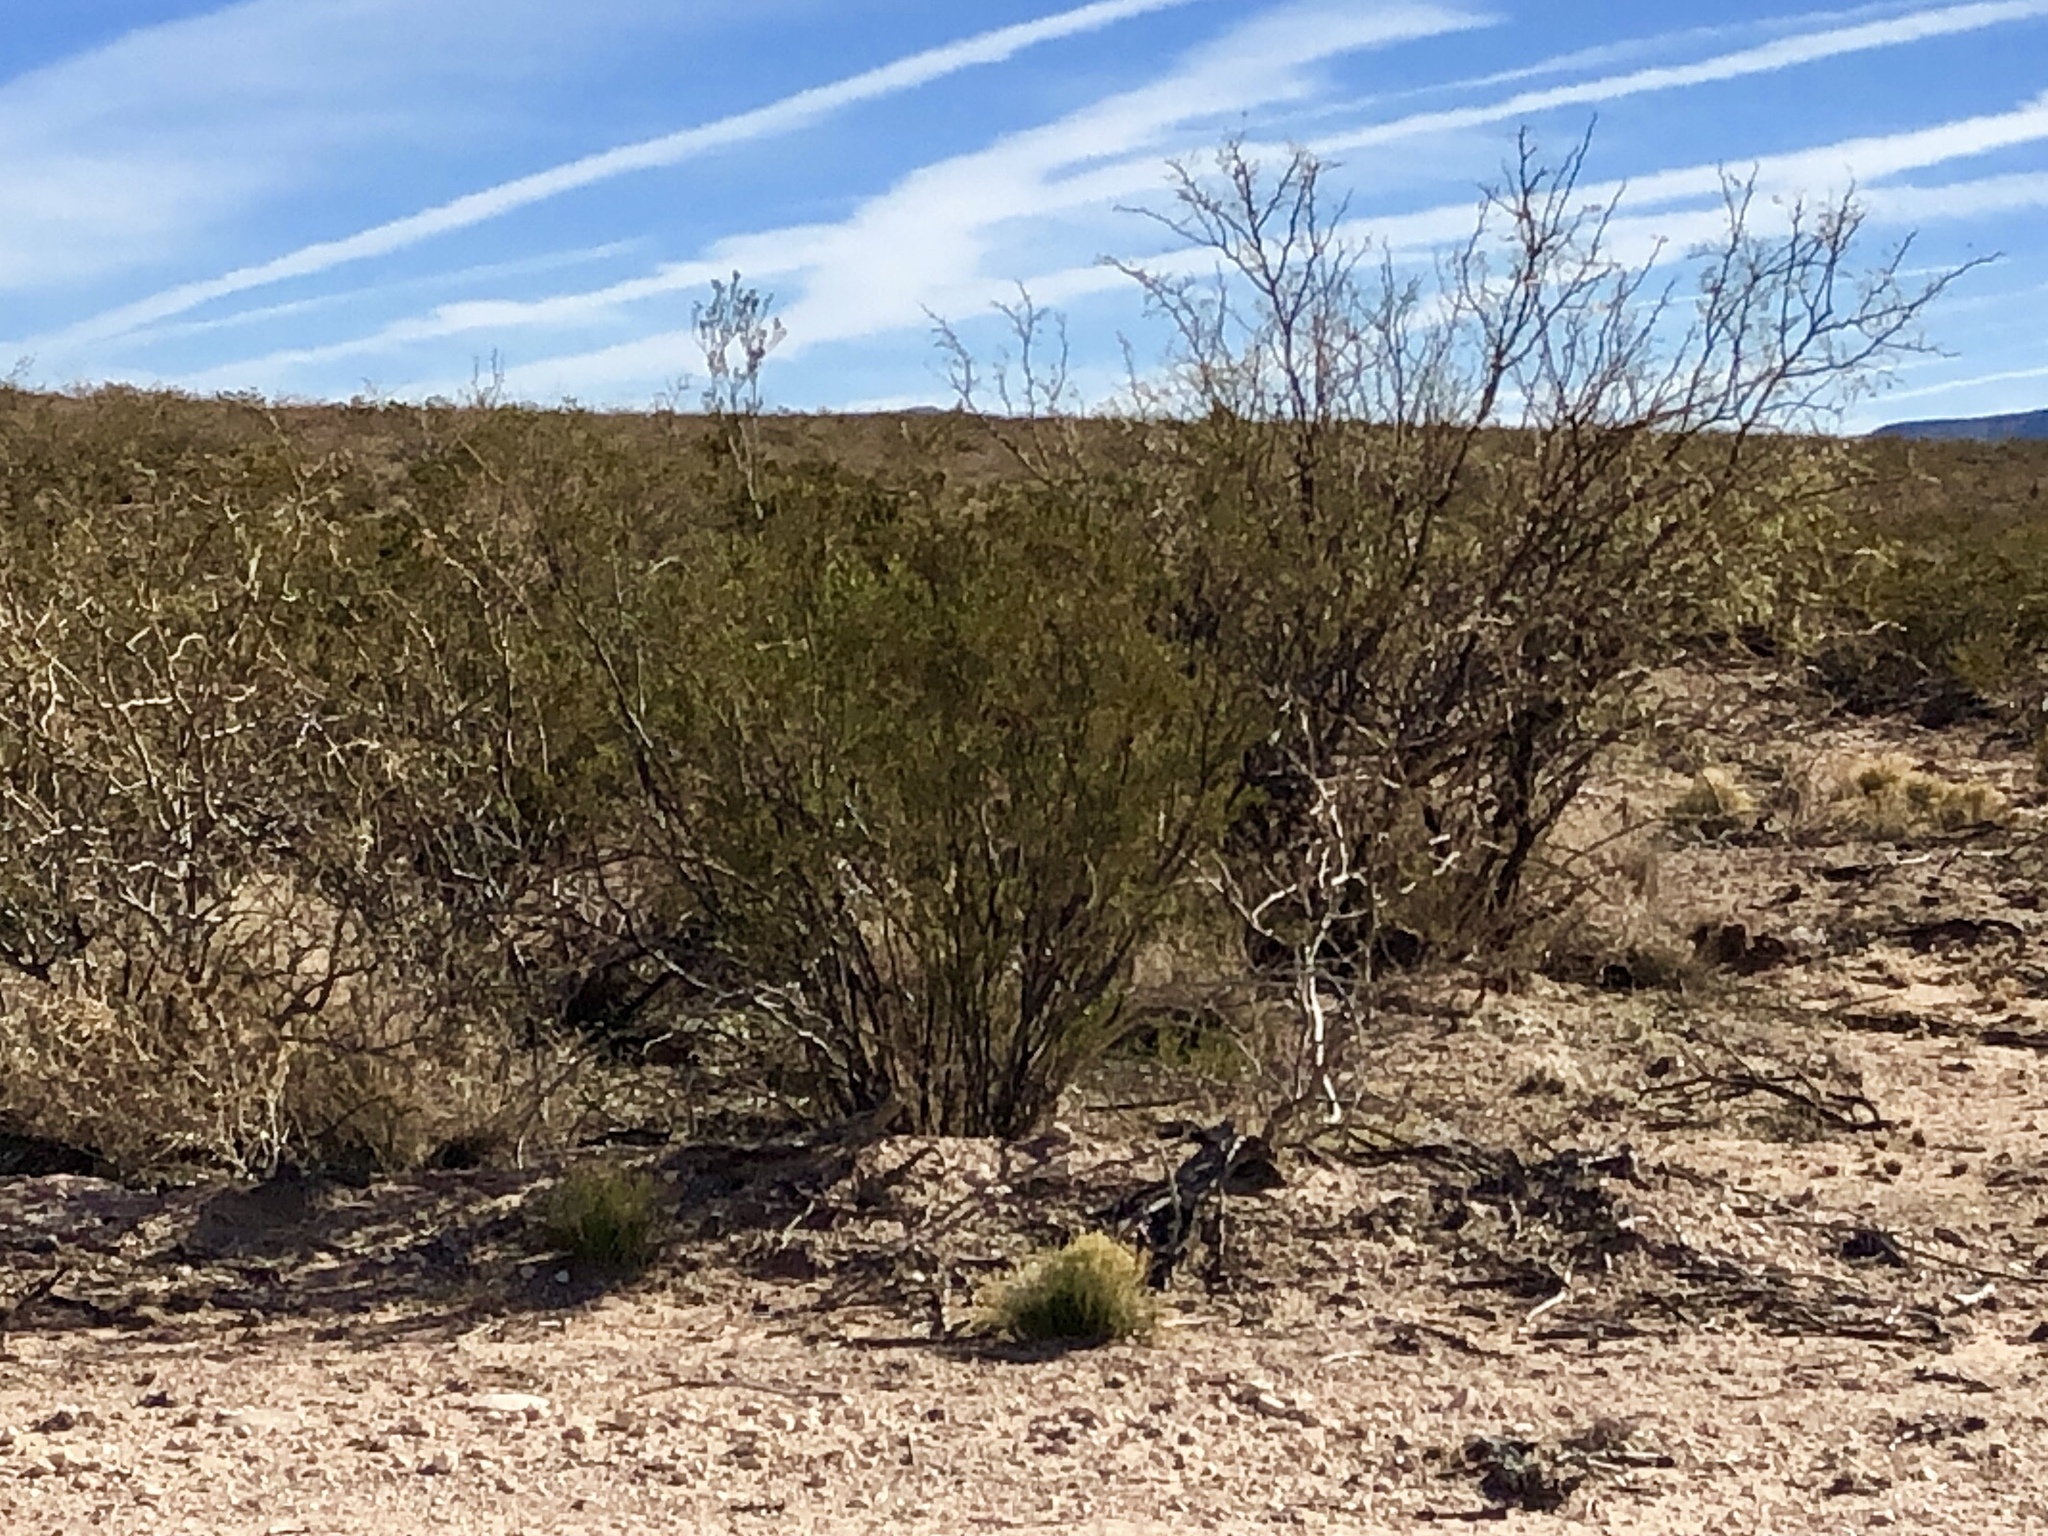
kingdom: Plantae
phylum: Tracheophyta
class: Magnoliopsida
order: Zygophyllales
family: Zygophyllaceae
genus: Larrea
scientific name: Larrea tridentata
